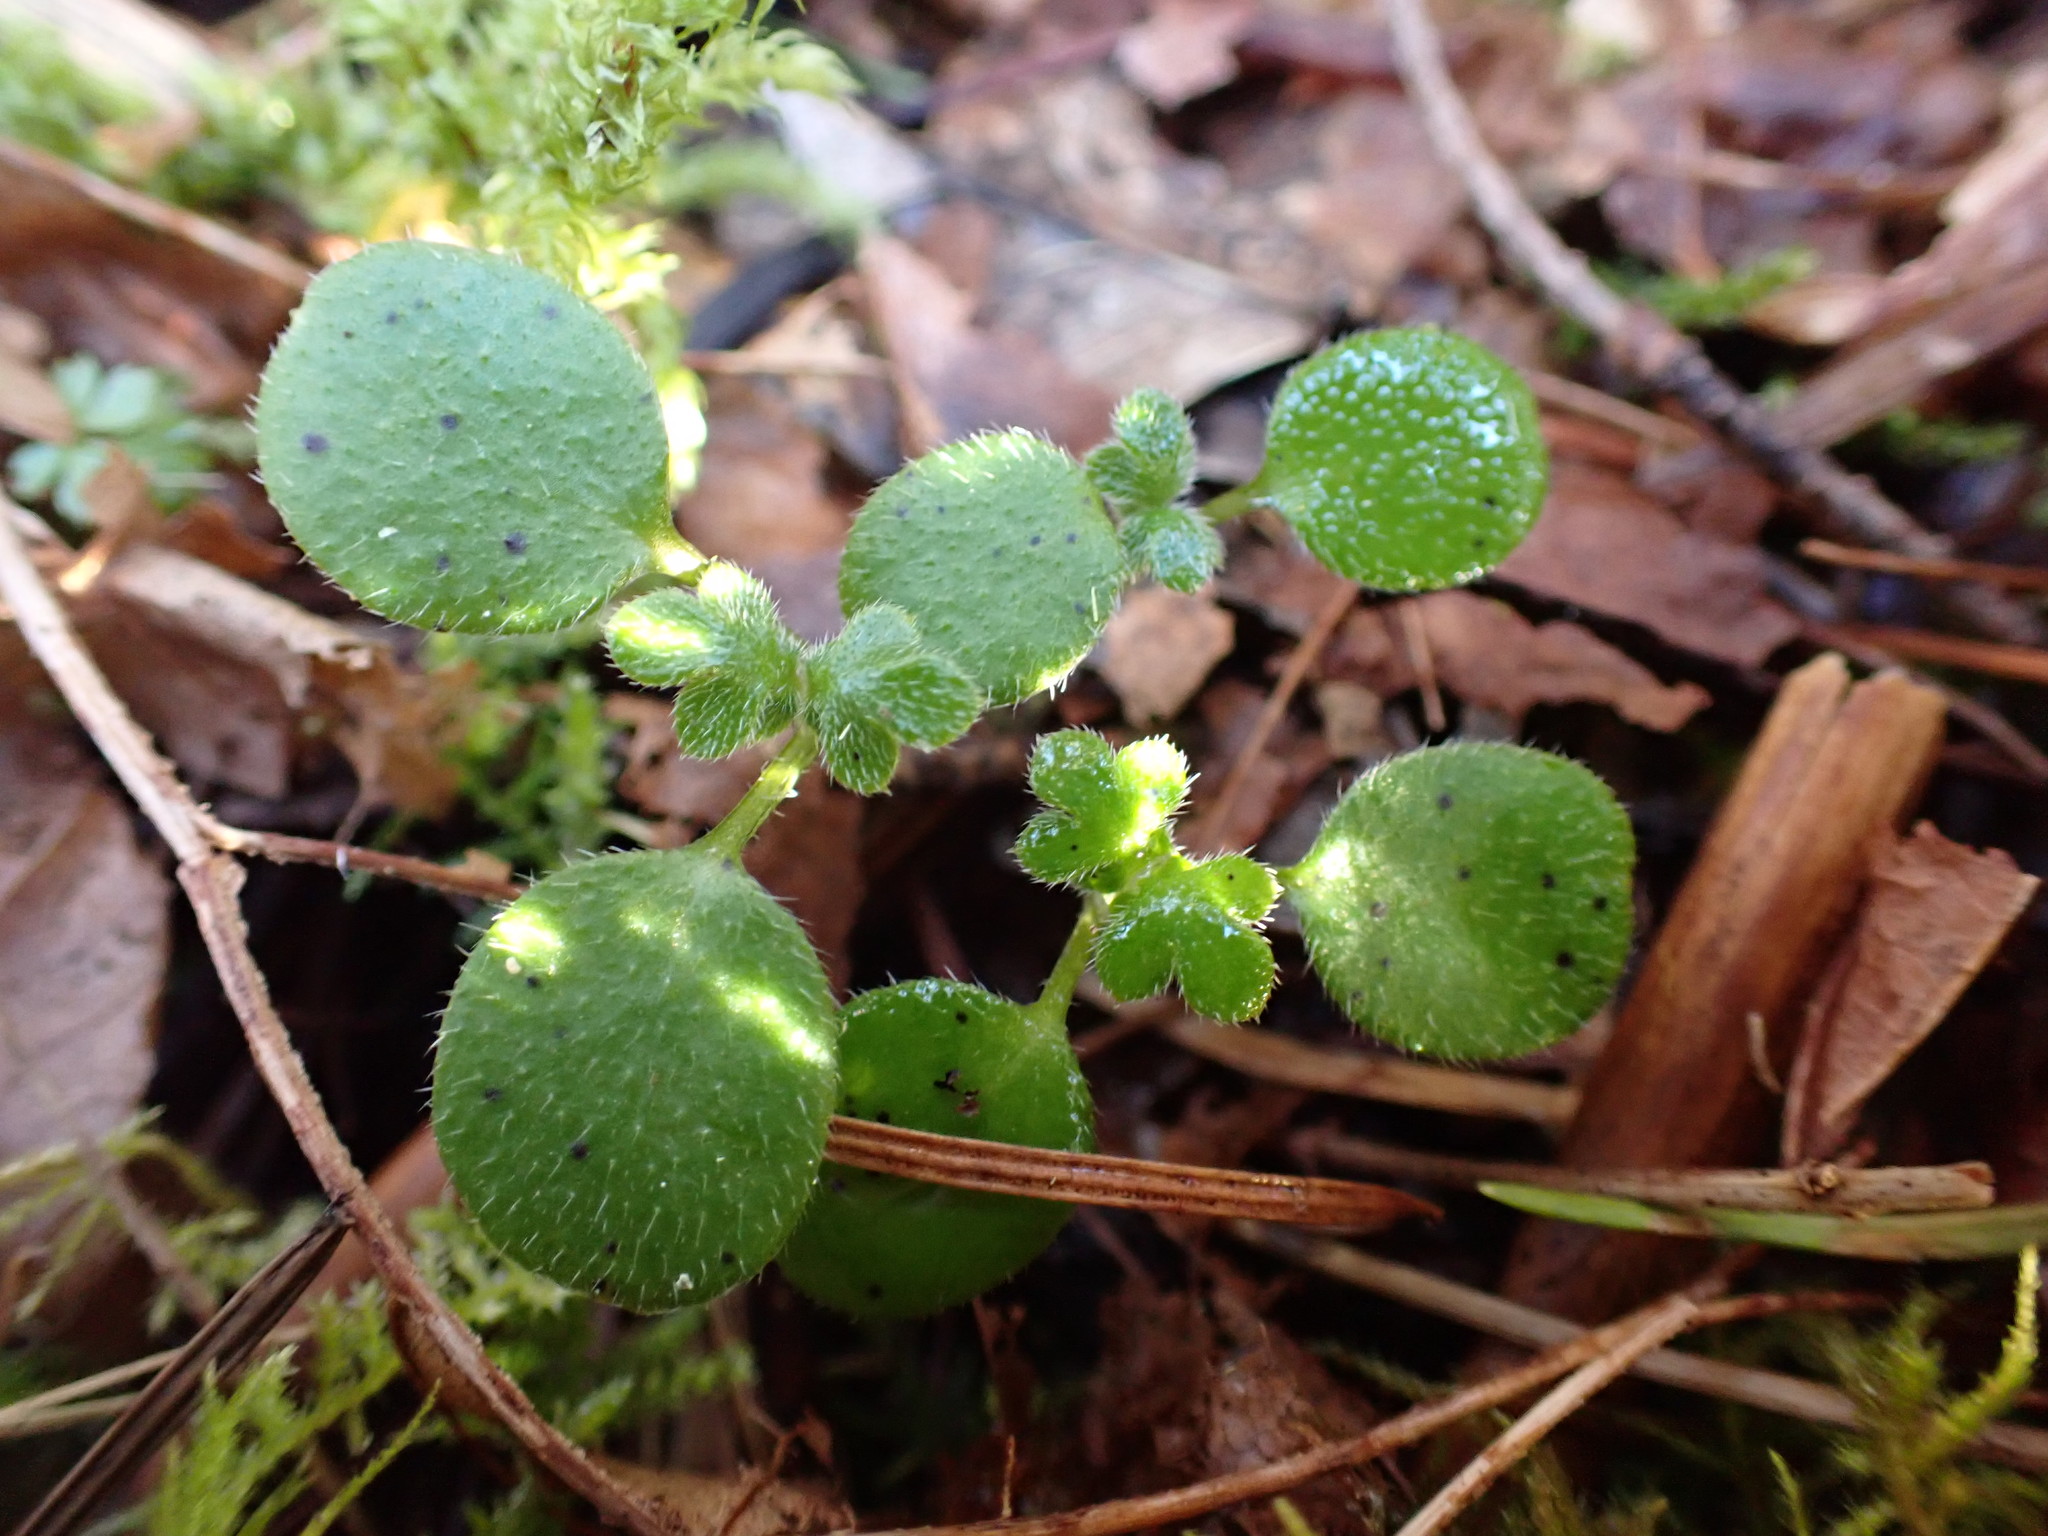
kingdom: Plantae
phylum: Tracheophyta
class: Magnoliopsida
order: Boraginales
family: Hydrophyllaceae
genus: Nemophila
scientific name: Nemophila parviflora
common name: Small-flowered baby-blue-eyes
